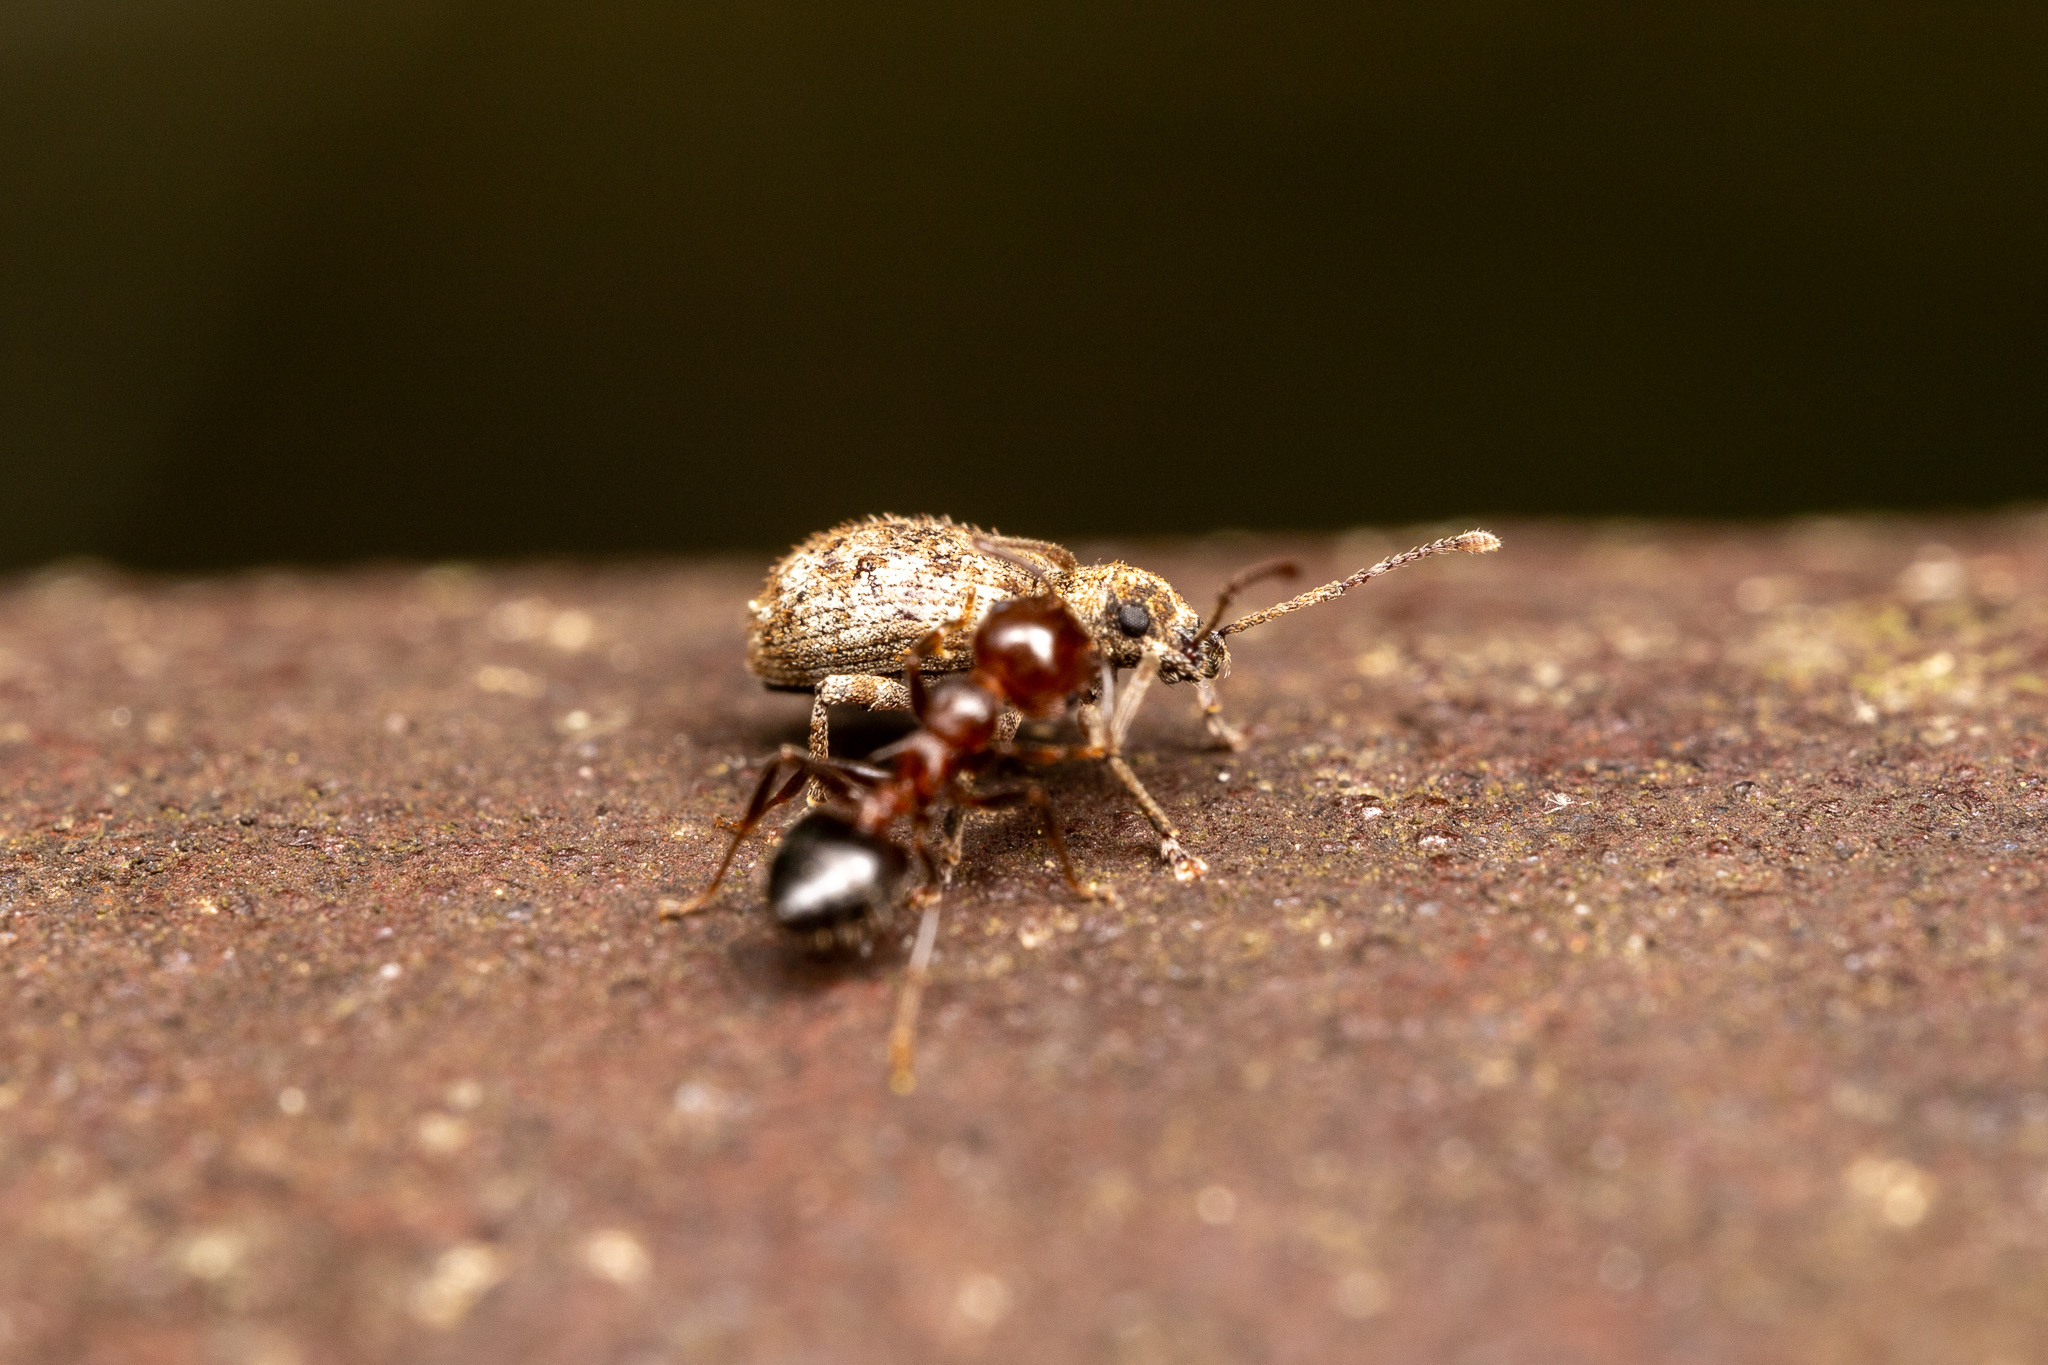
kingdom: Animalia
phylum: Arthropoda
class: Insecta
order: Coleoptera
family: Curculionidae
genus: Pseudoedophrys
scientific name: Pseudoedophrys hilleri
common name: Weevil
